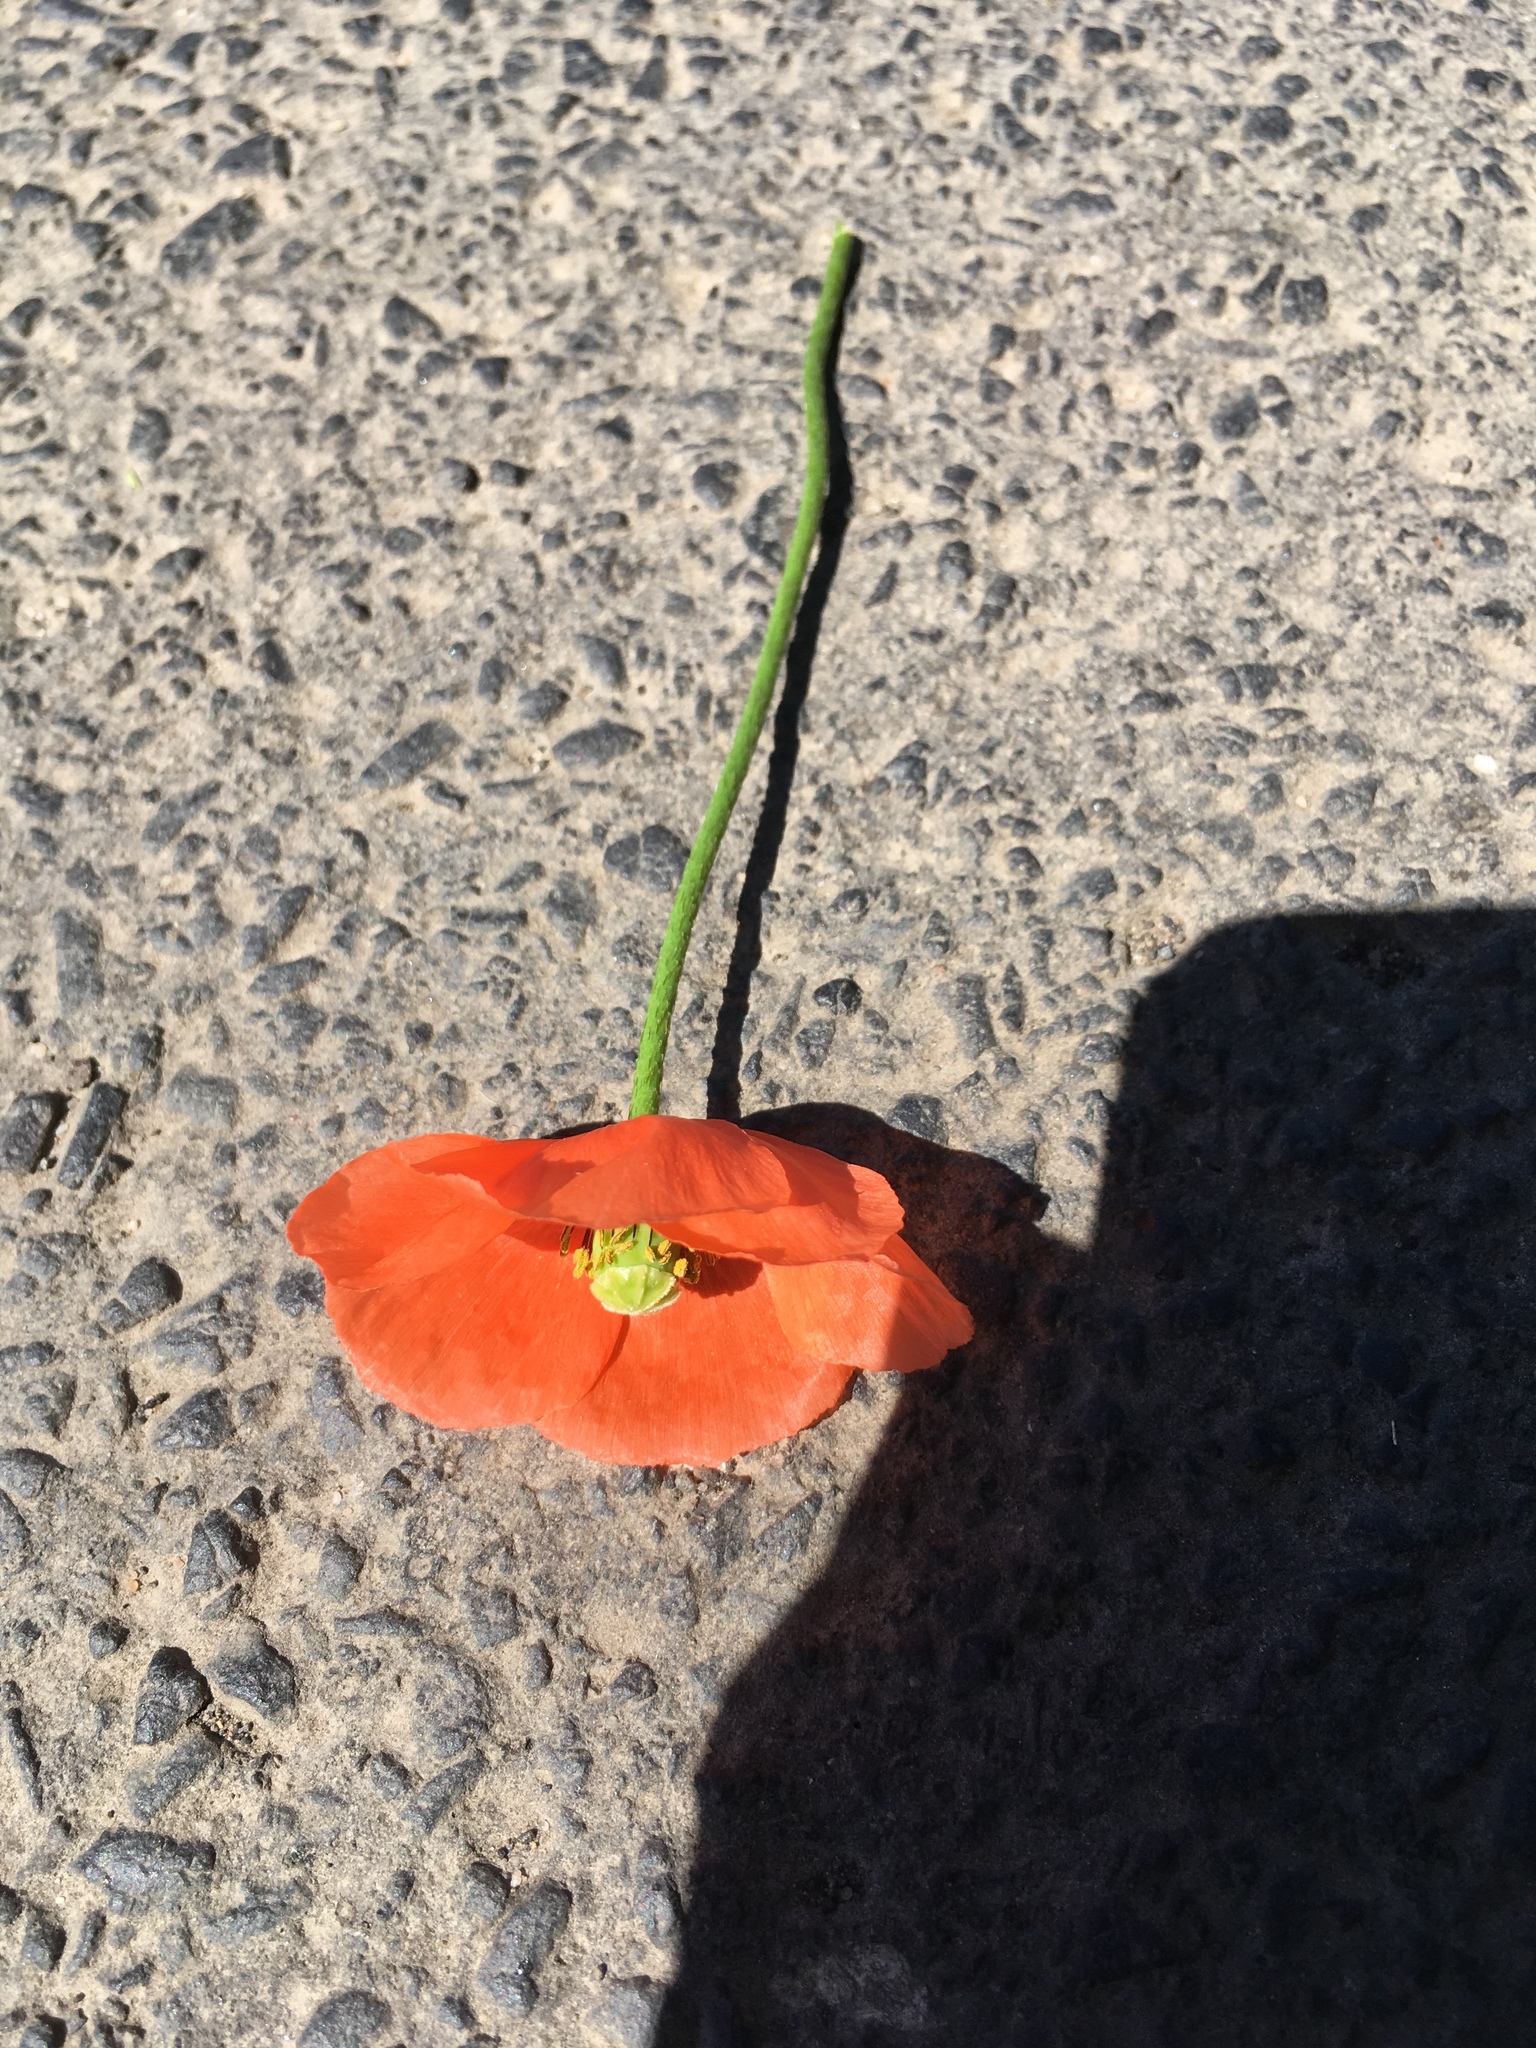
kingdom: Plantae
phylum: Tracheophyta
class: Magnoliopsida
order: Ranunculales
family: Papaveraceae
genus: Papaver
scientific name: Papaver dubium
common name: Long-headed poppy
